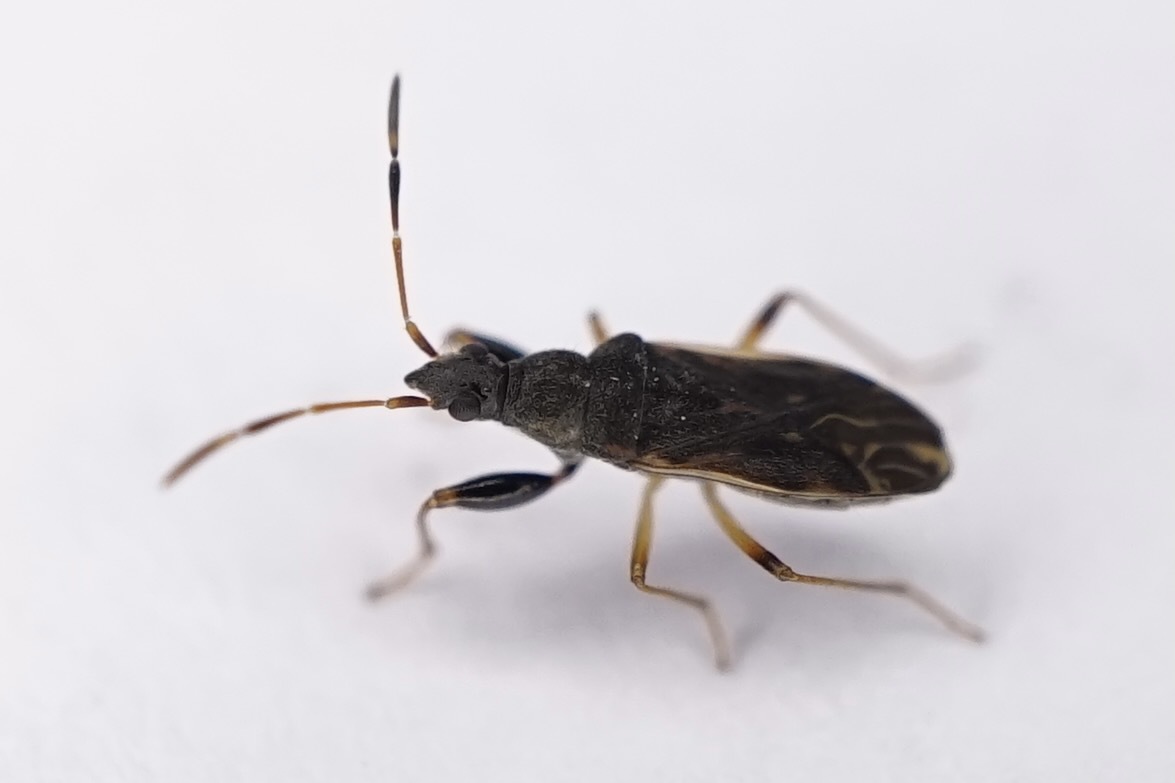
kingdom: Animalia
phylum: Arthropoda
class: Insecta
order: Hemiptera
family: Rhyparochromidae
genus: Horridipamera
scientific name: Horridipamera lateralis
